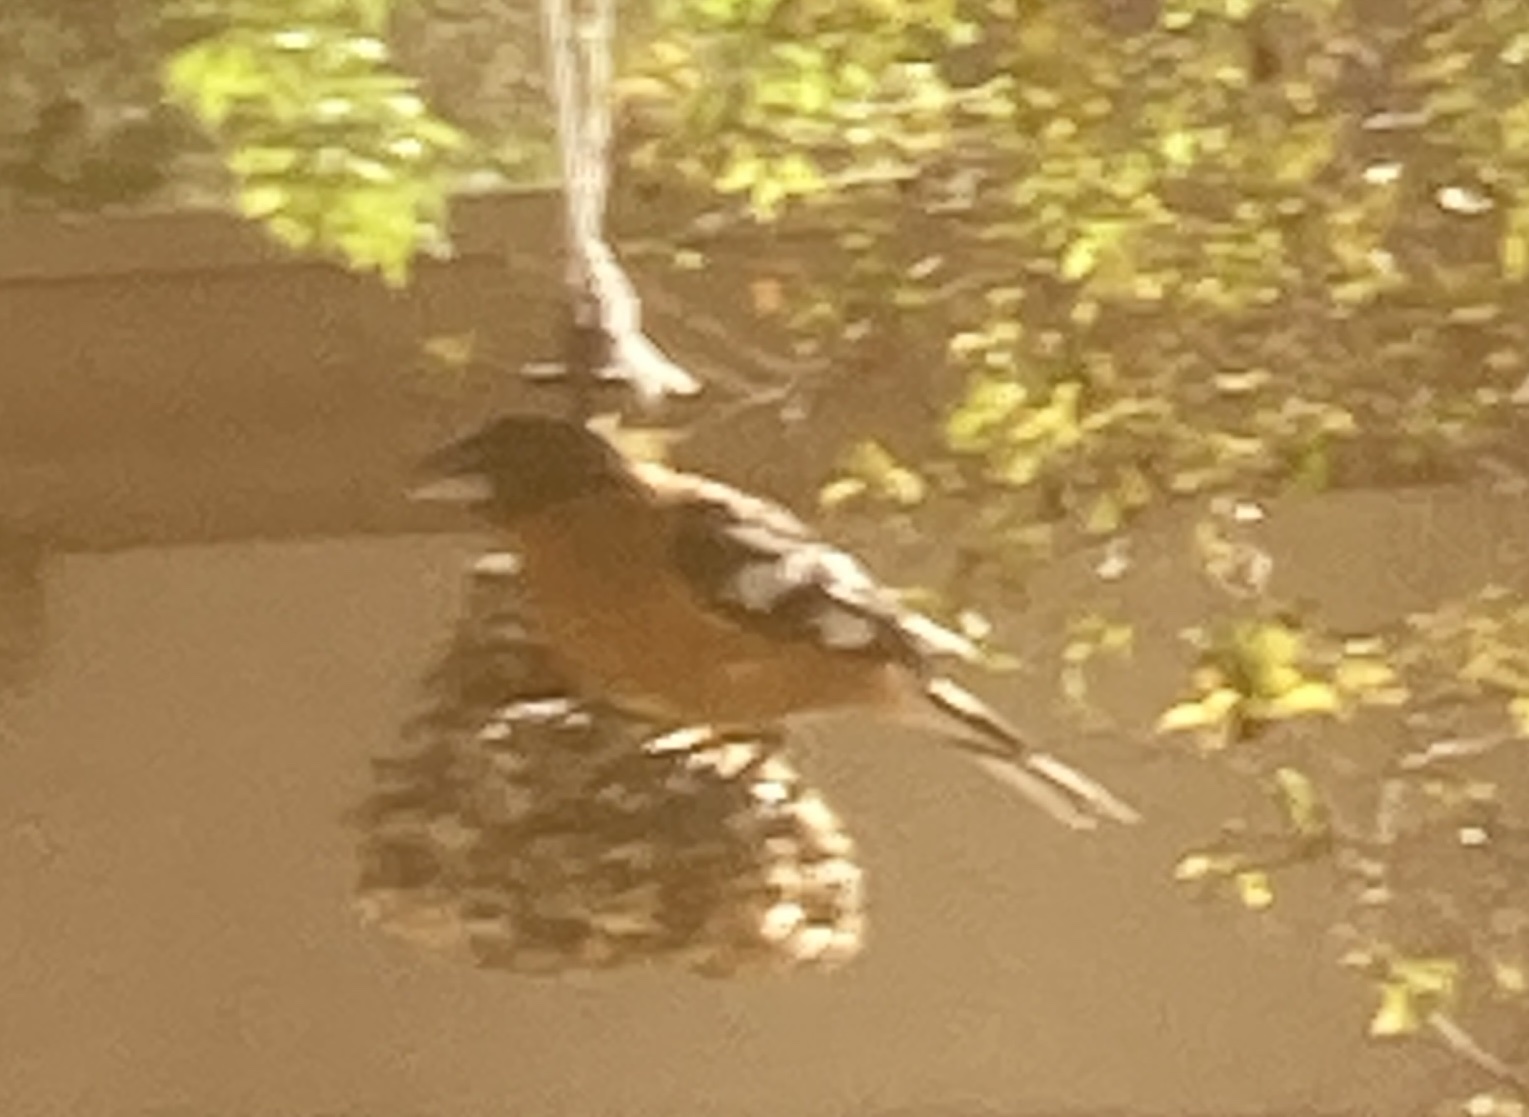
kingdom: Animalia
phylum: Chordata
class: Aves
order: Passeriformes
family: Cardinalidae
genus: Pheucticus
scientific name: Pheucticus melanocephalus
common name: Black-headed grosbeak
